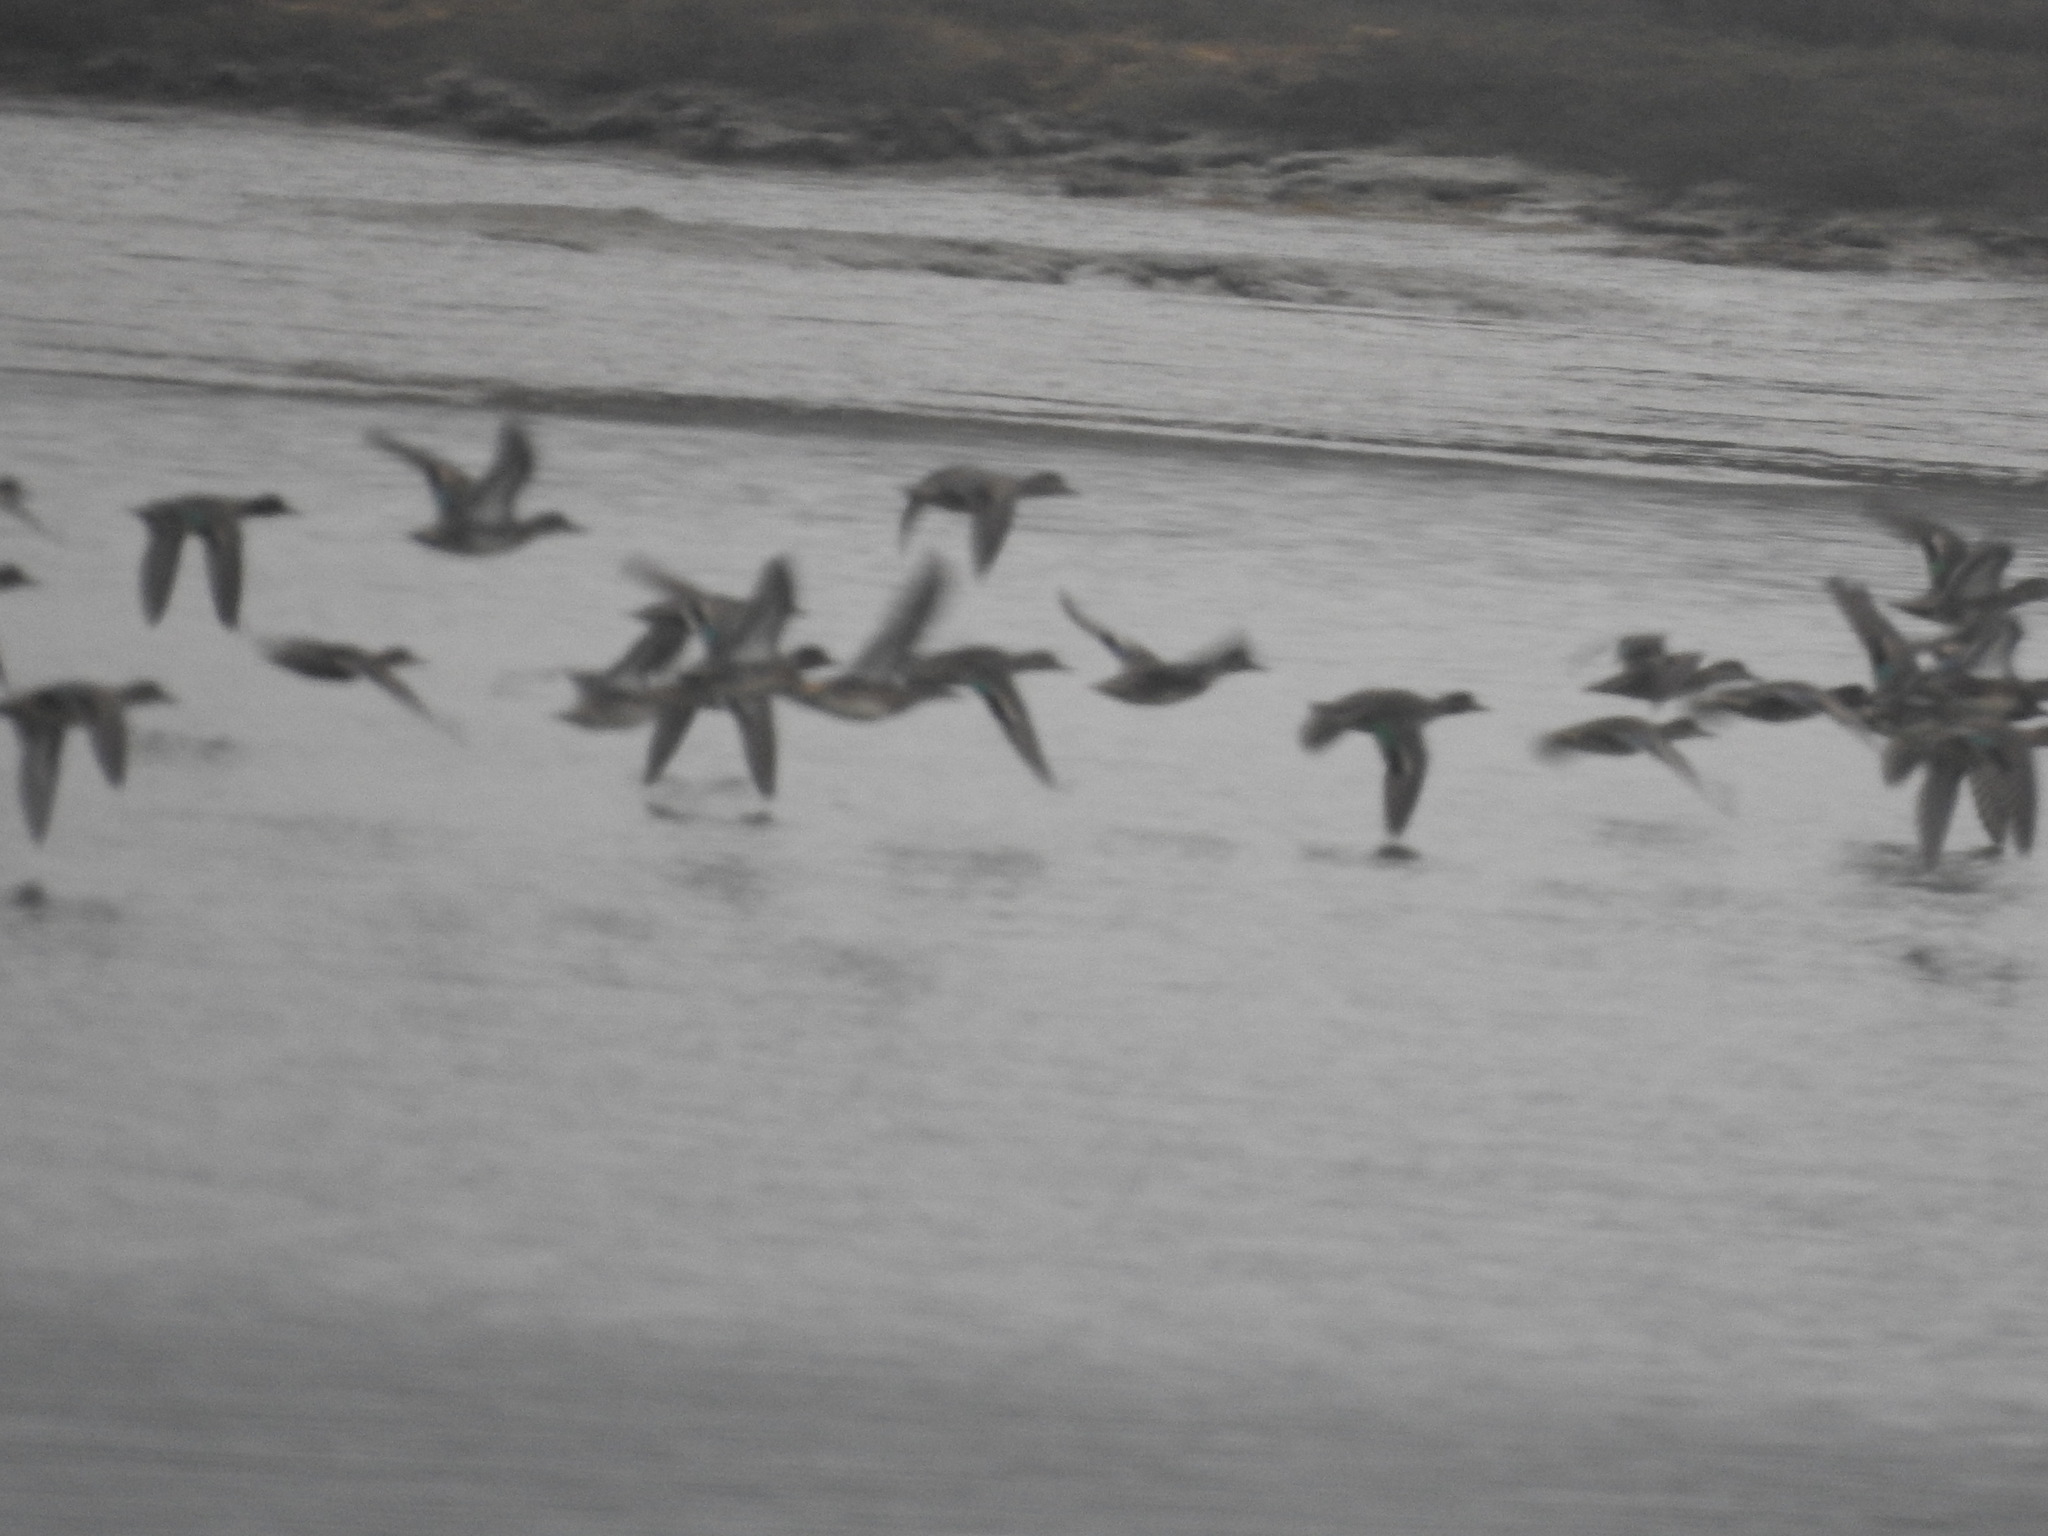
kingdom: Animalia
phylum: Chordata
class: Aves
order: Anseriformes
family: Anatidae
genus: Anas
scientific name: Anas crecca
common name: Eurasian teal
